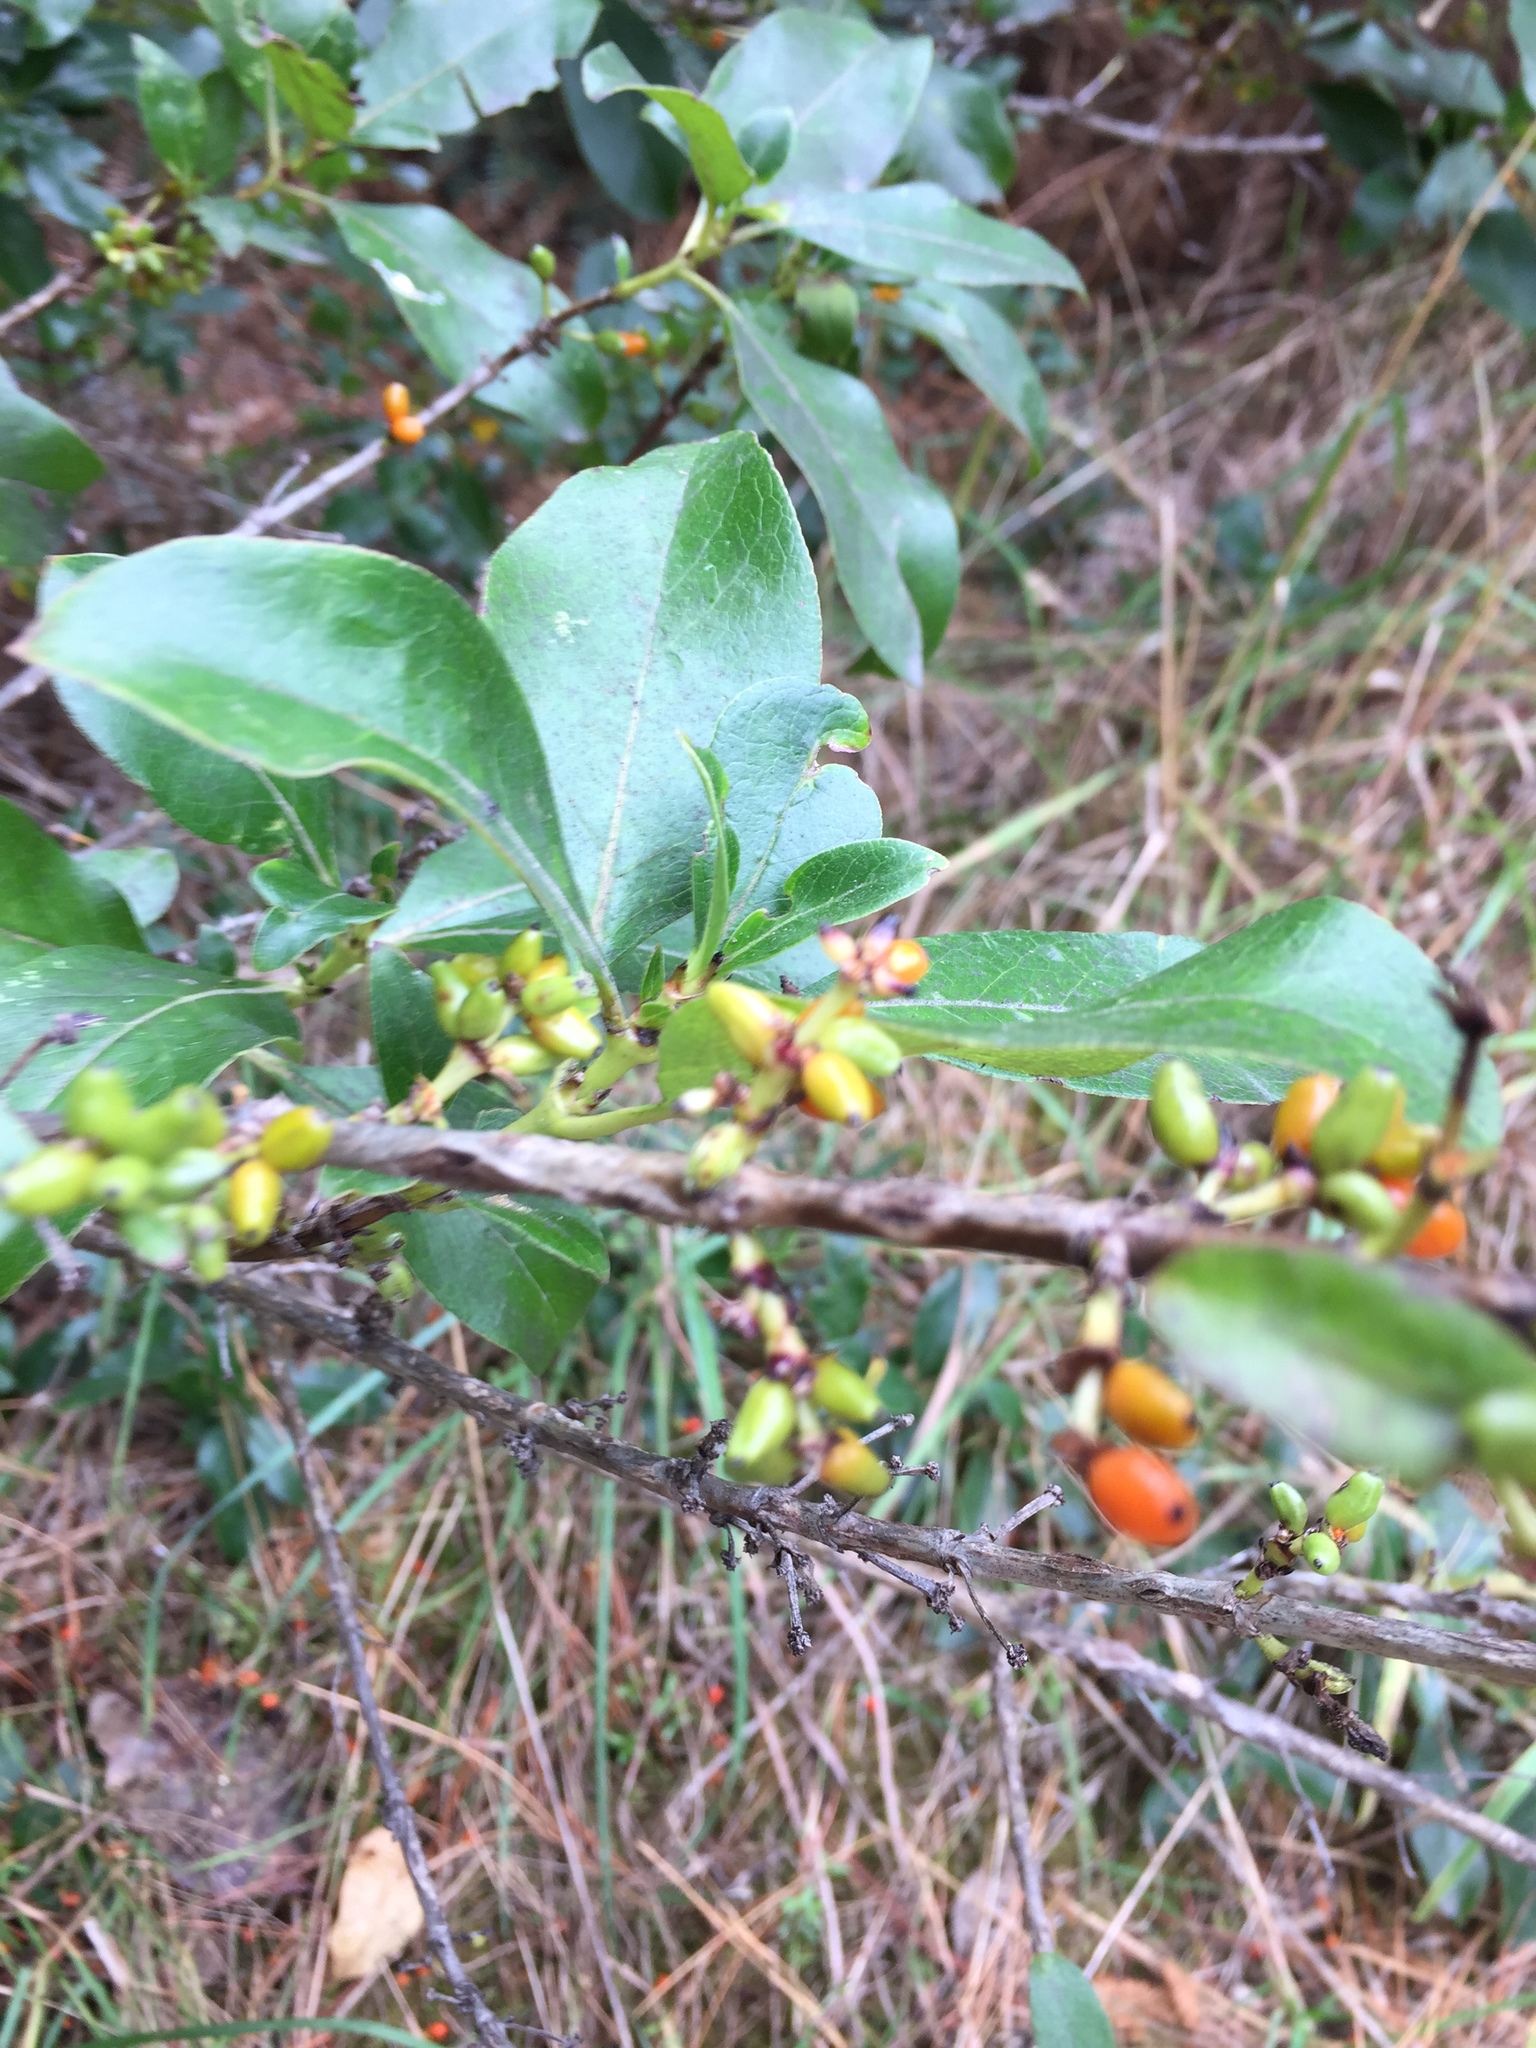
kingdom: Plantae
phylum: Tracheophyta
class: Magnoliopsida
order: Gentianales
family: Rubiaceae
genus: Coprosma
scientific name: Coprosma robusta
